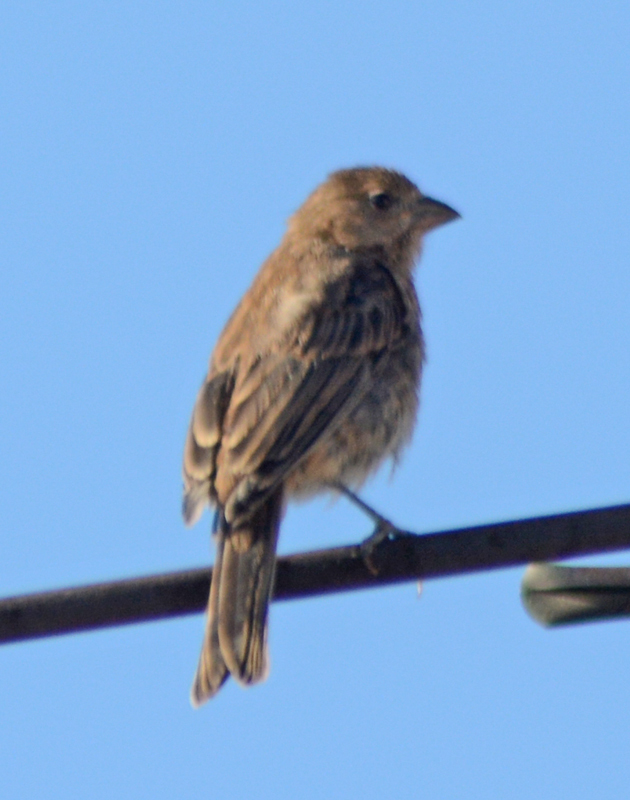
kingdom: Animalia
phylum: Chordata
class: Aves
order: Passeriformes
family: Fringillidae
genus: Haemorhous
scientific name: Haemorhous mexicanus
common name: House finch
